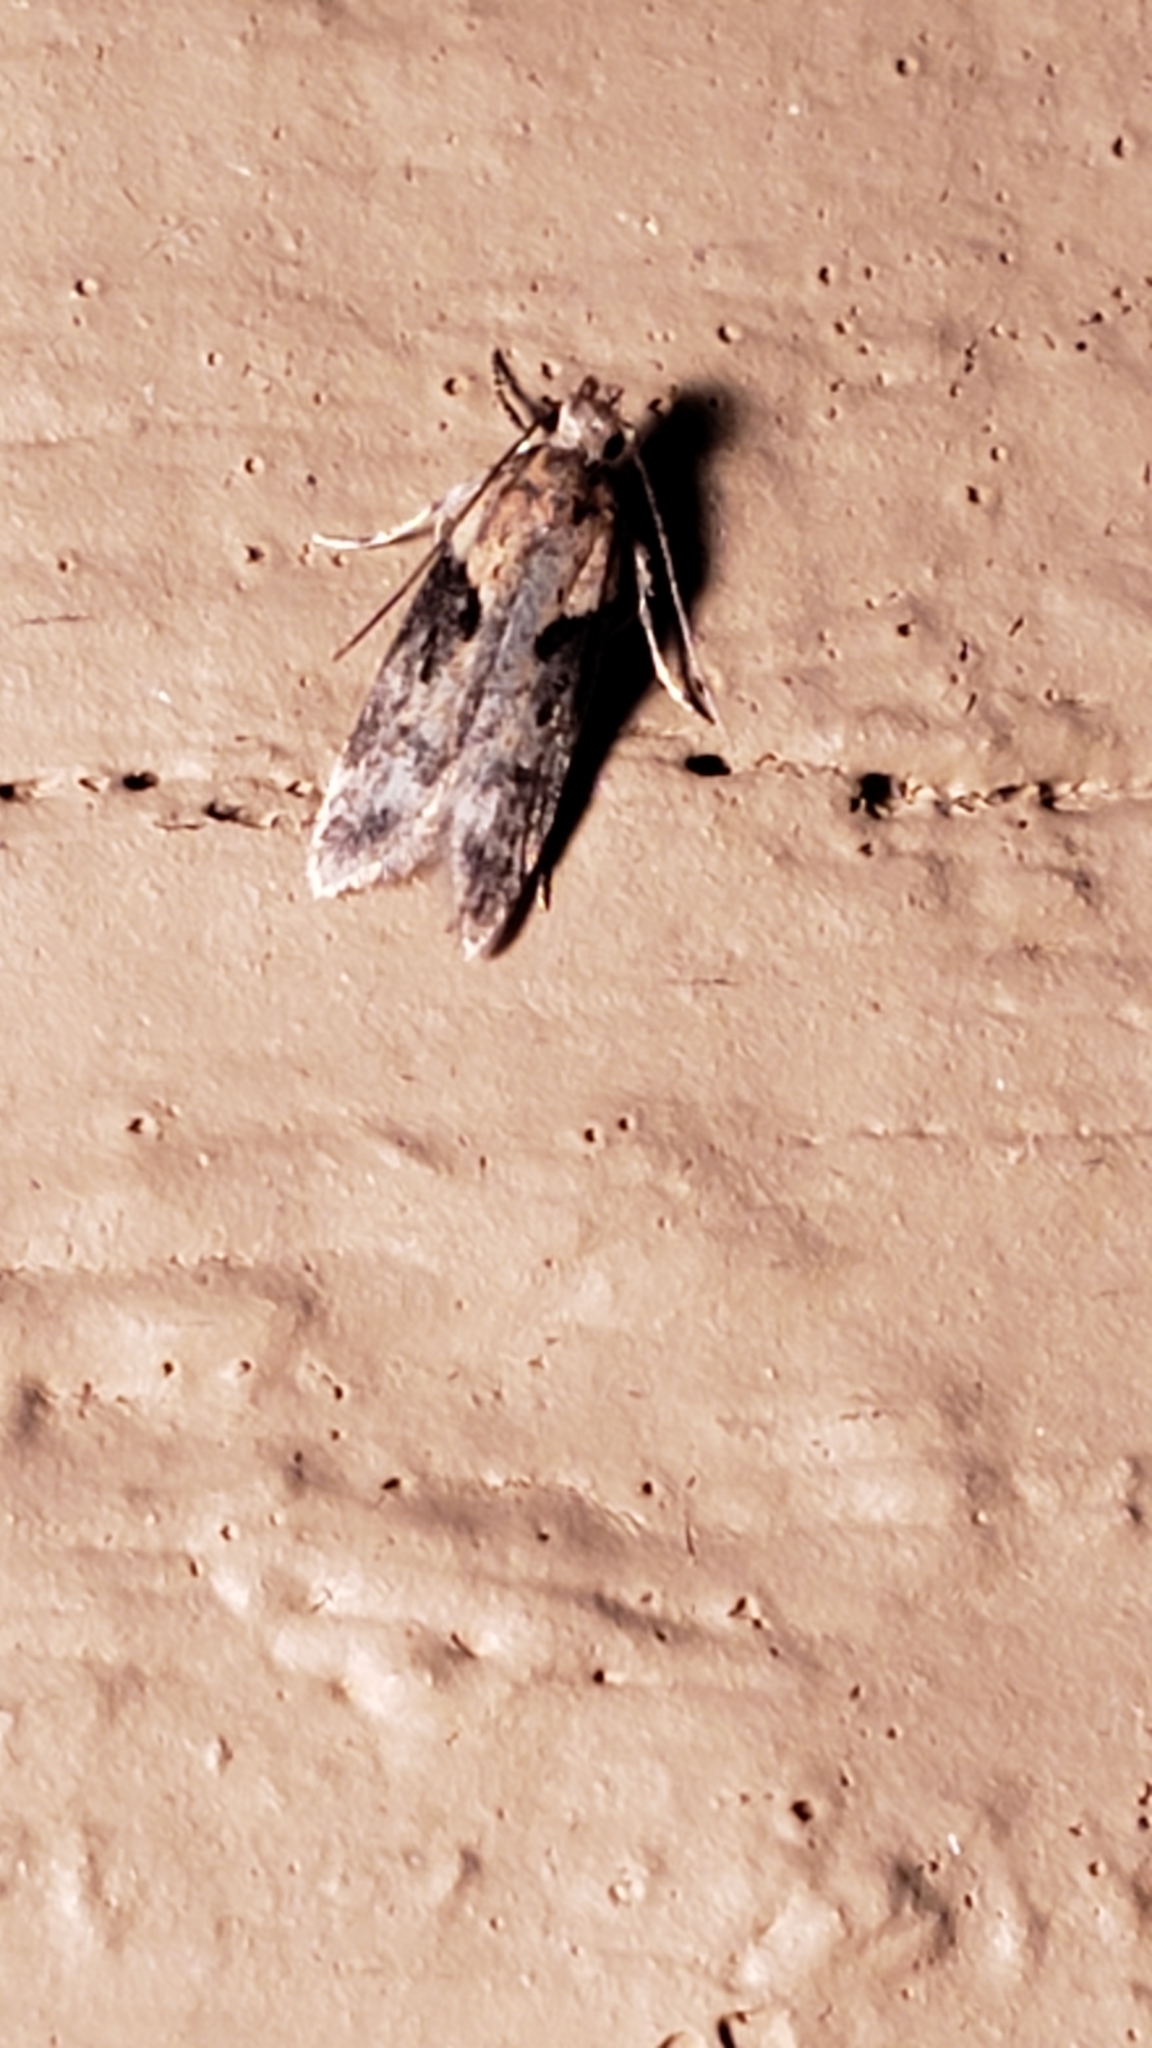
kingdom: Animalia
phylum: Arthropoda
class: Insecta
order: Lepidoptera
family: Gelechiidae
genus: Chionodes
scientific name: Chionodes mediofuscella
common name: Black-smudged chionodes moth
